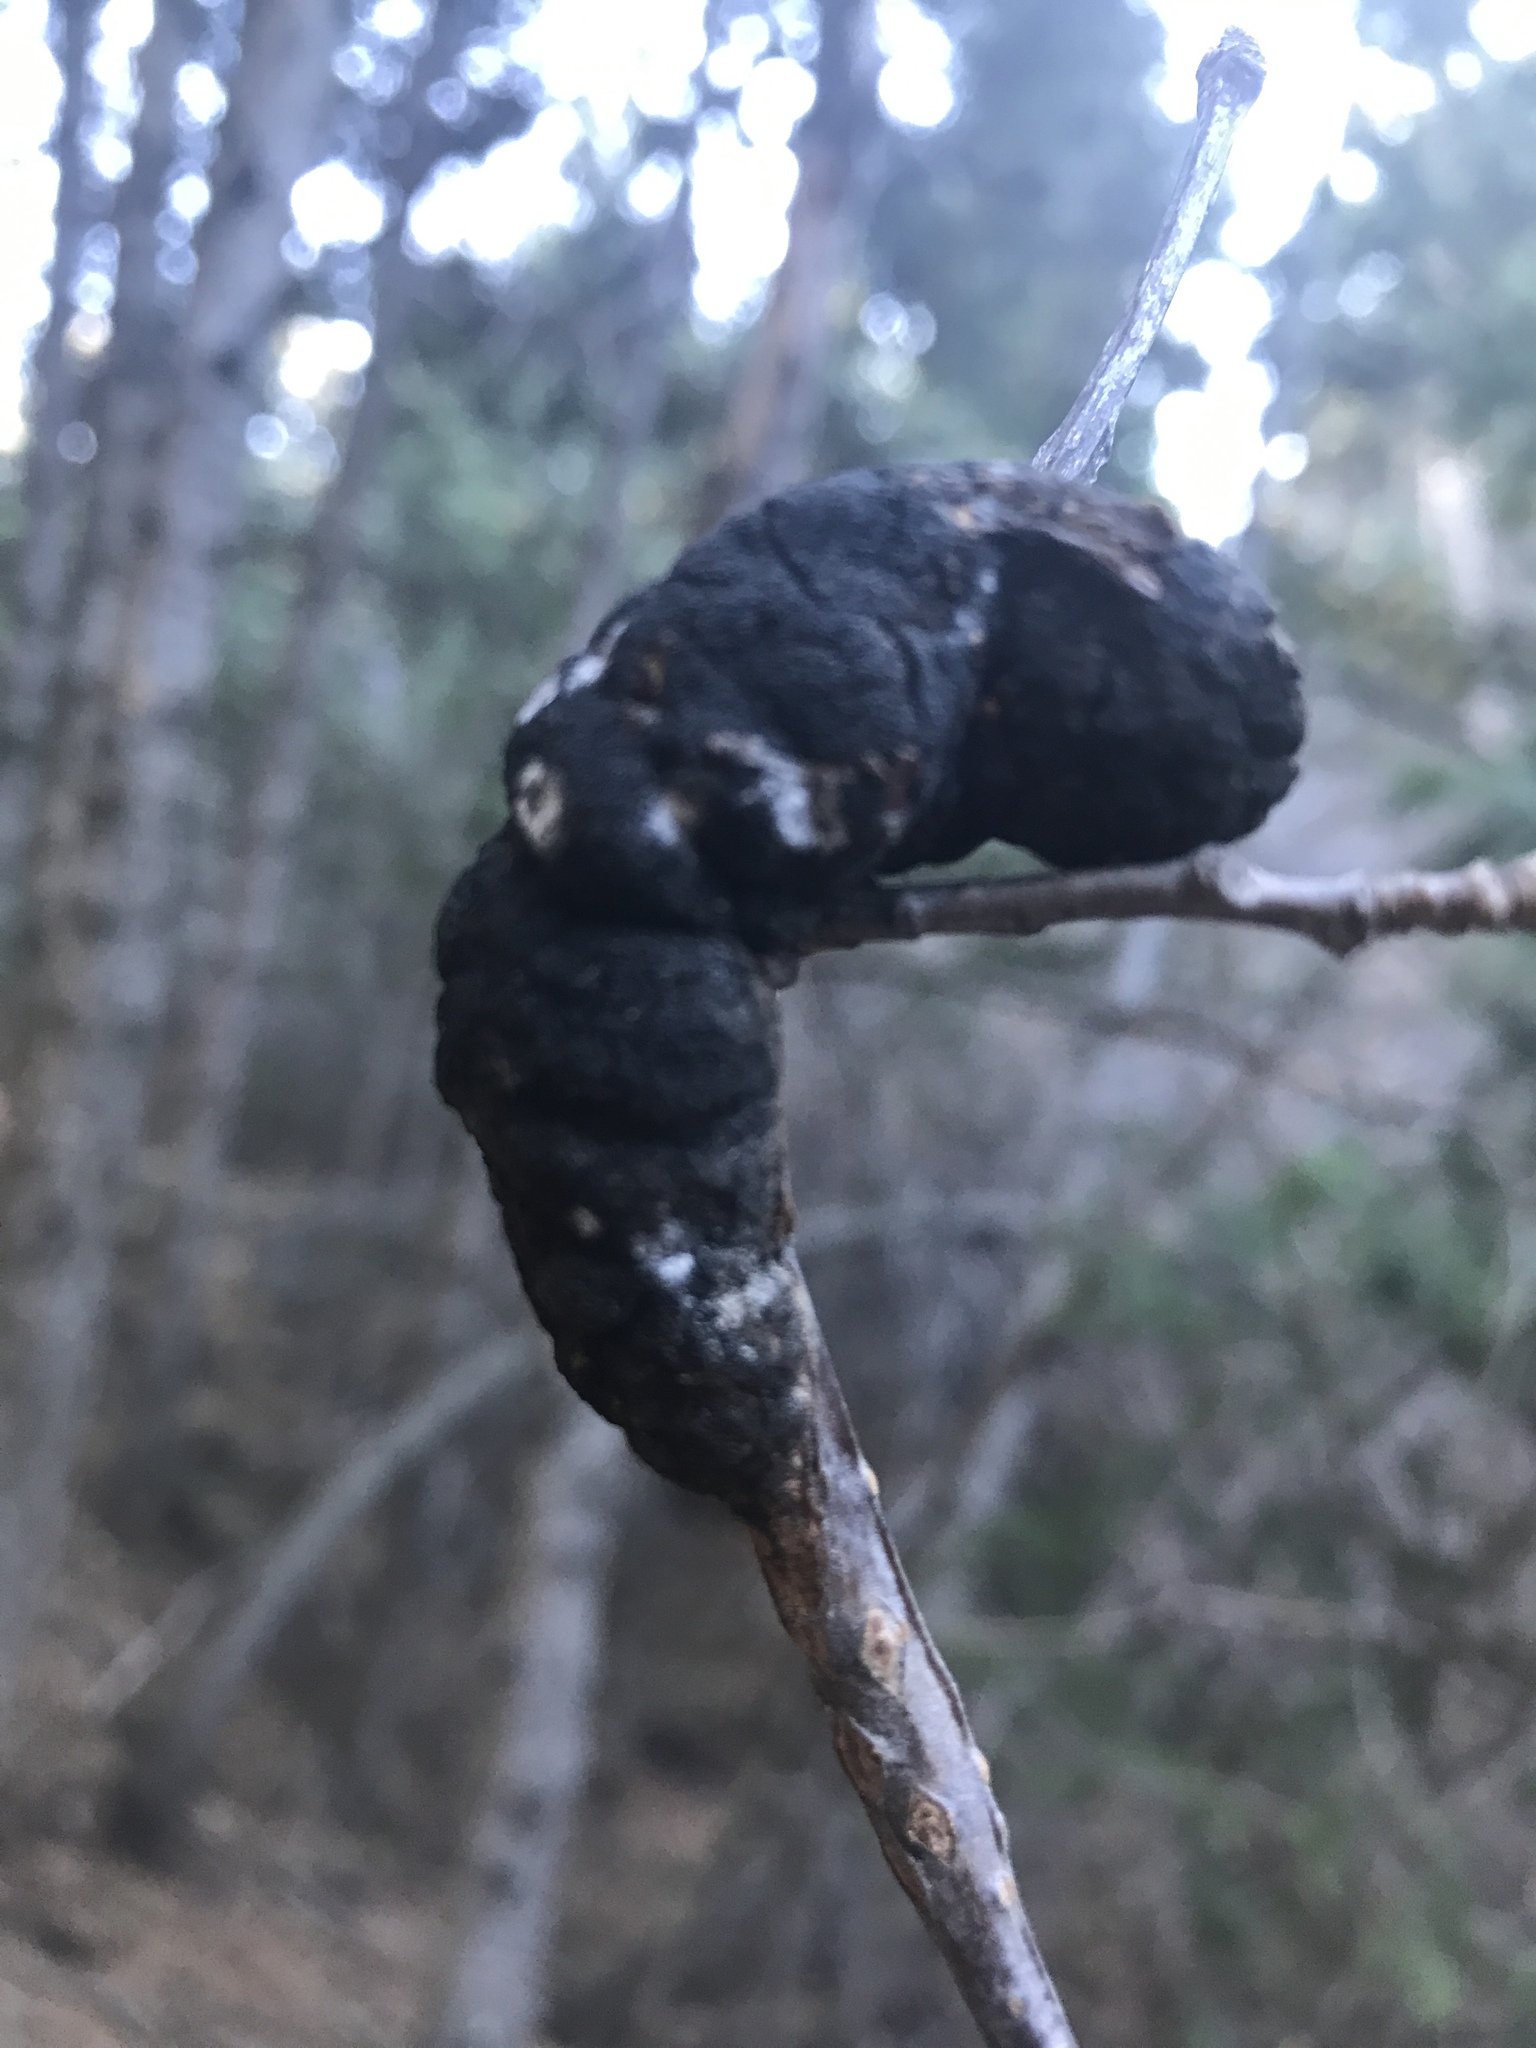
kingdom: Fungi
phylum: Ascomycota
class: Dothideomycetes
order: Venturiales
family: Venturiaceae
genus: Apiosporina
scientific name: Apiosporina morbosa
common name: Black knot
